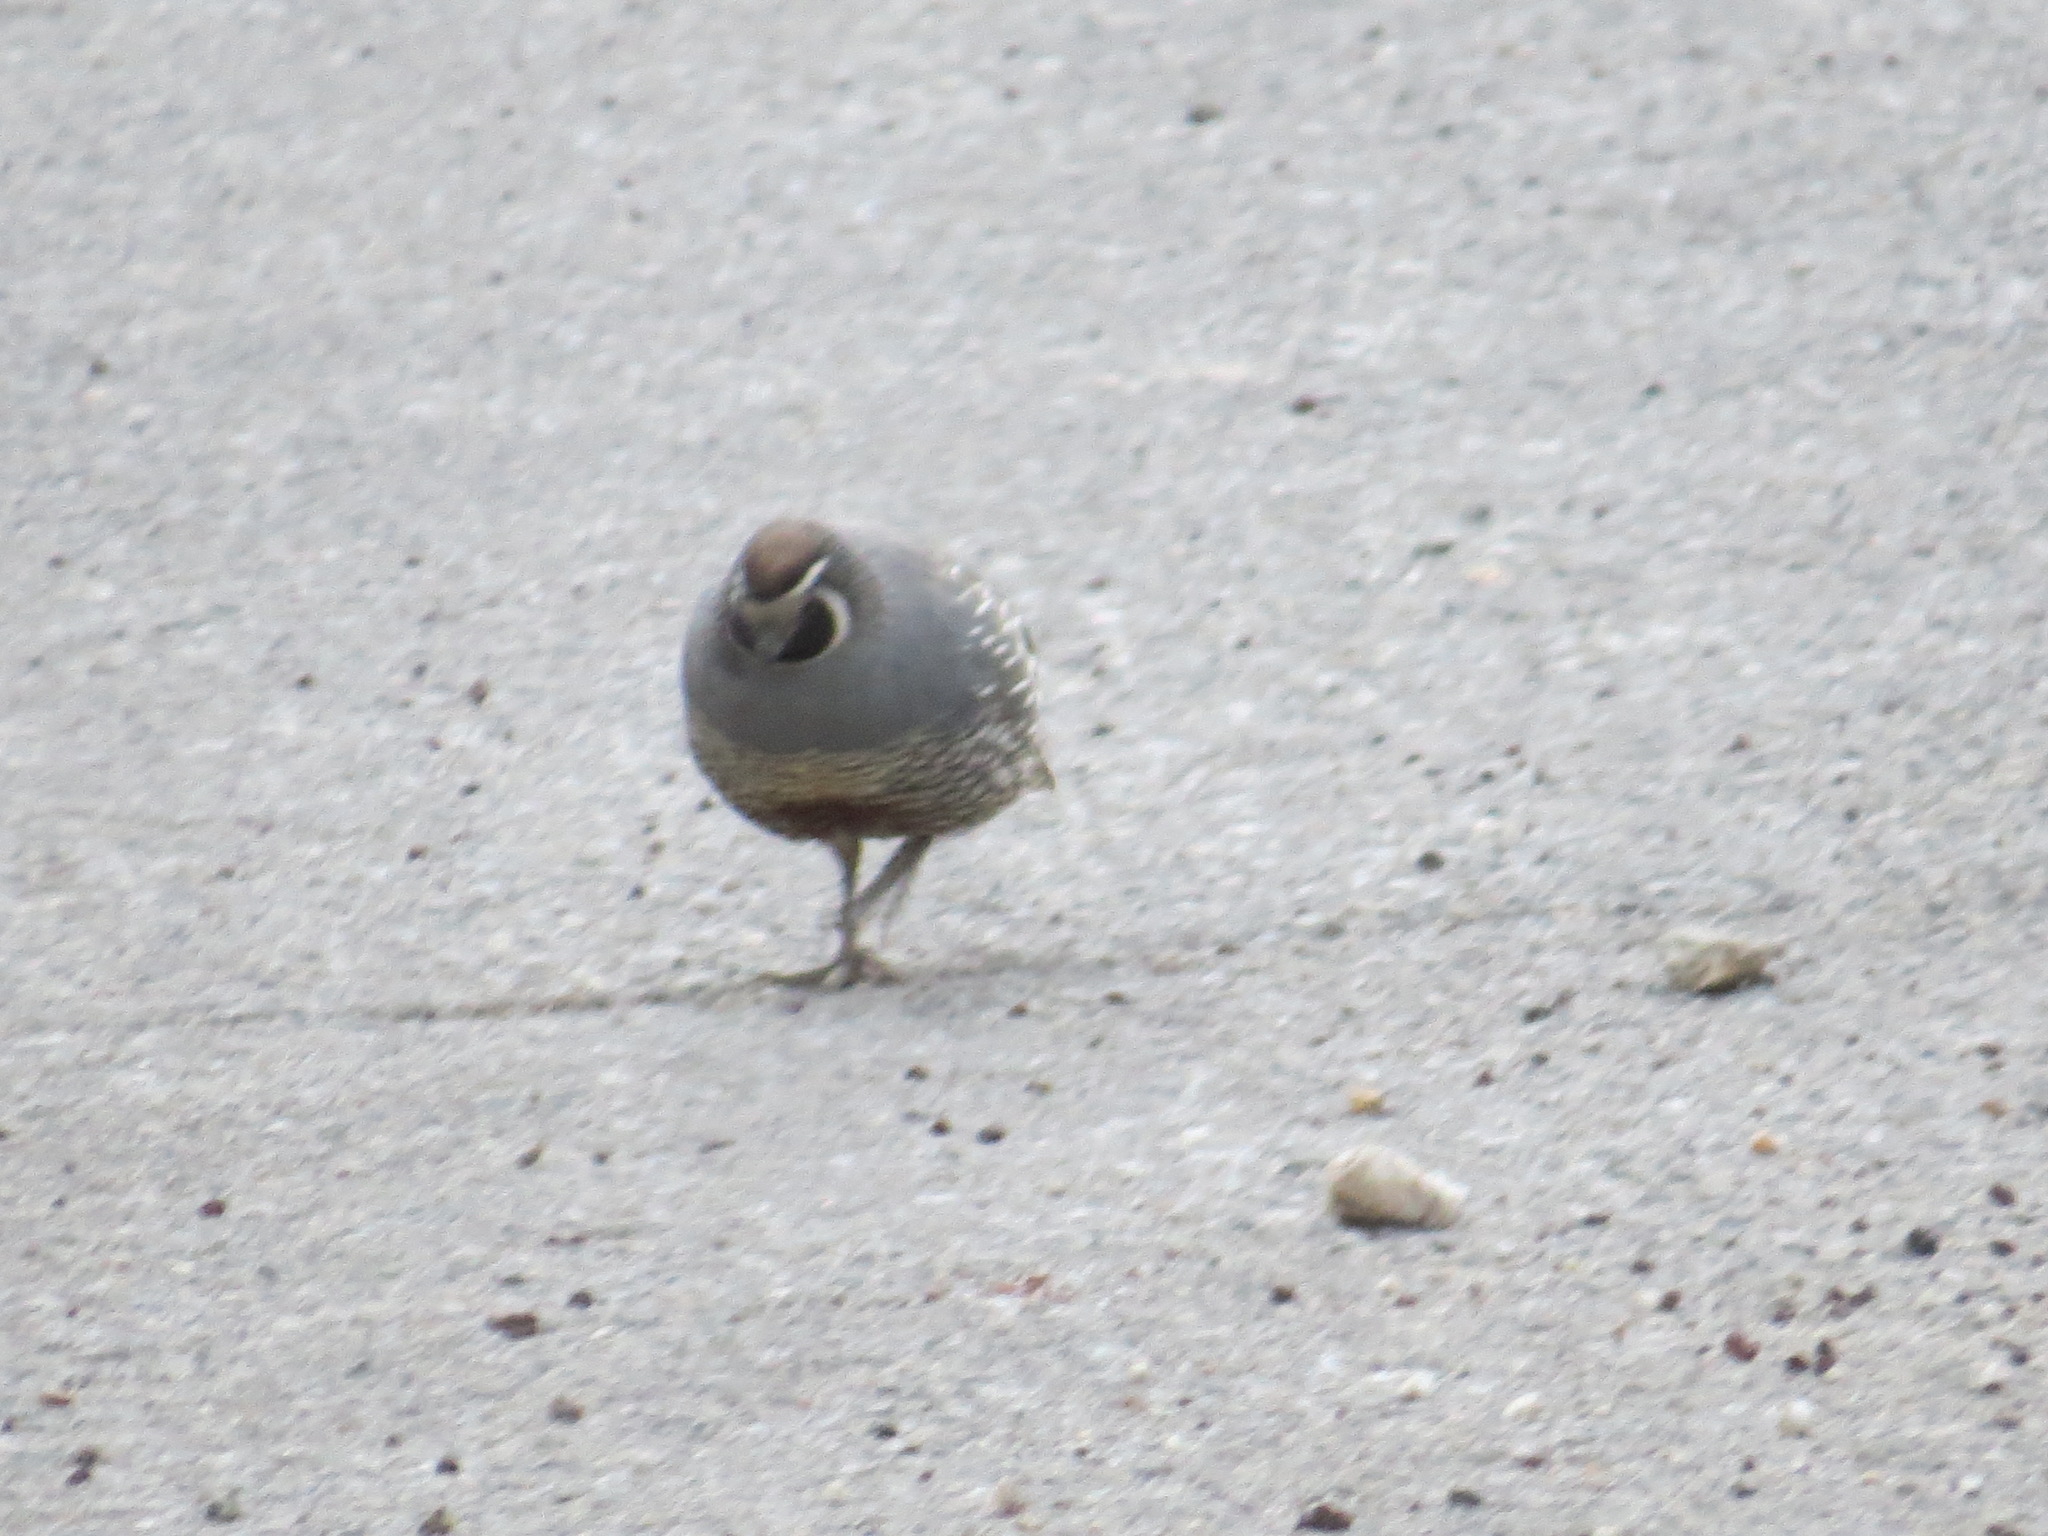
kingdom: Animalia
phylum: Chordata
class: Aves
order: Galliformes
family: Odontophoridae
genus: Callipepla
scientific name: Callipepla californica
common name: California quail
